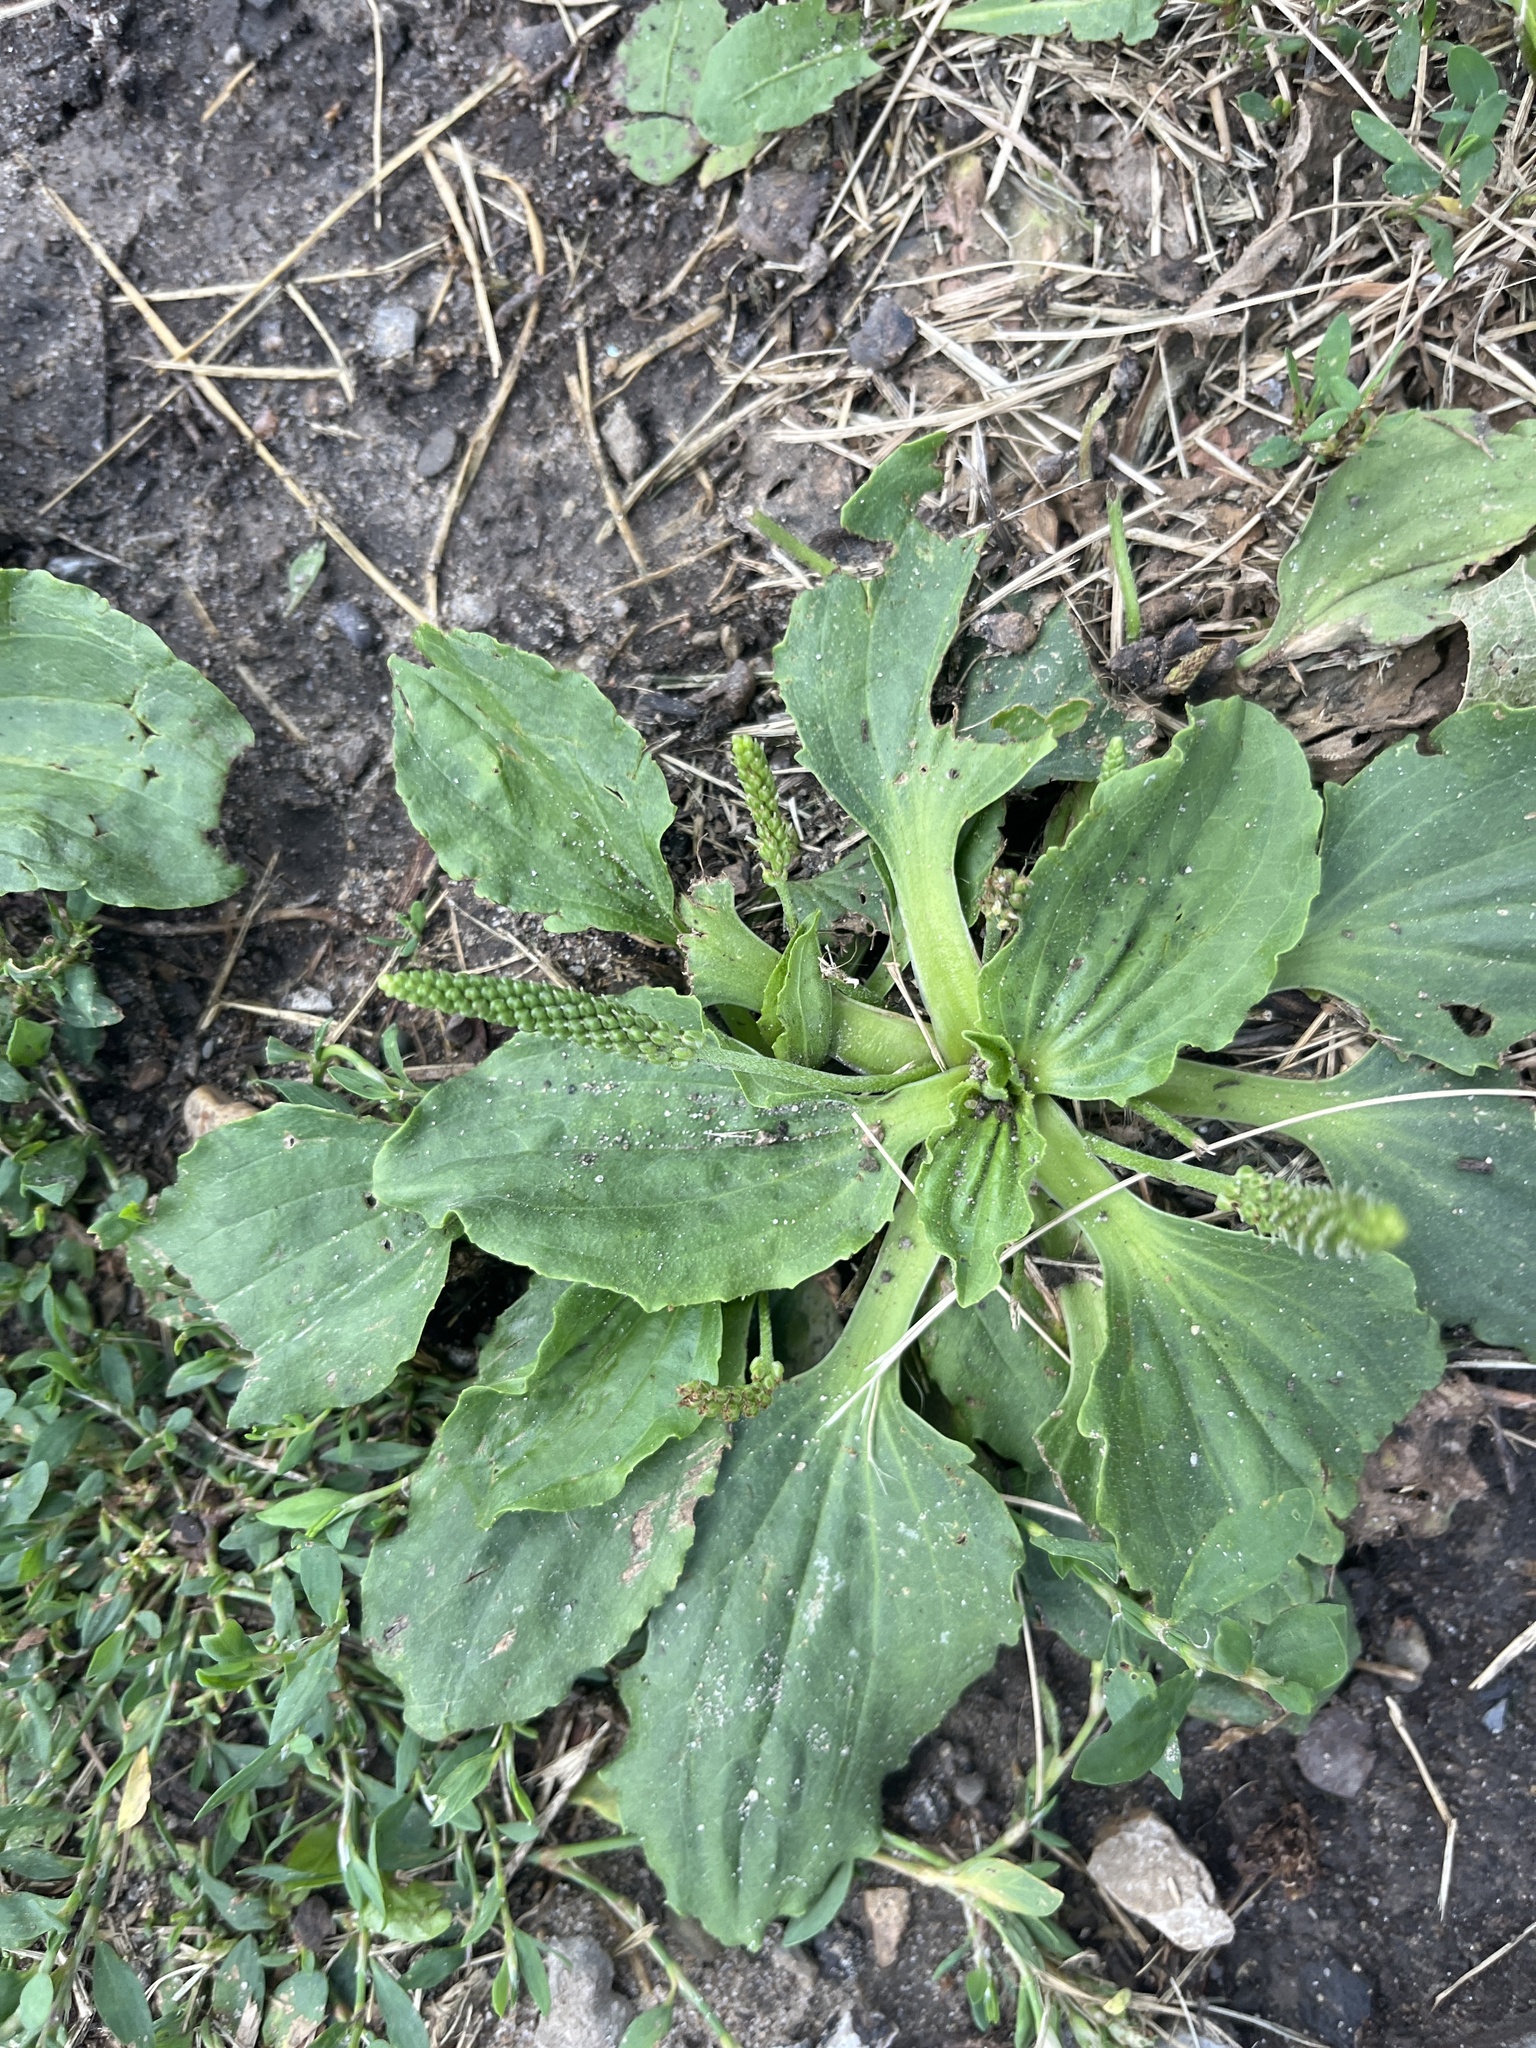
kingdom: Plantae
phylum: Tracheophyta
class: Magnoliopsida
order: Lamiales
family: Plantaginaceae
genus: Plantago
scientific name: Plantago major
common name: Common plantain
